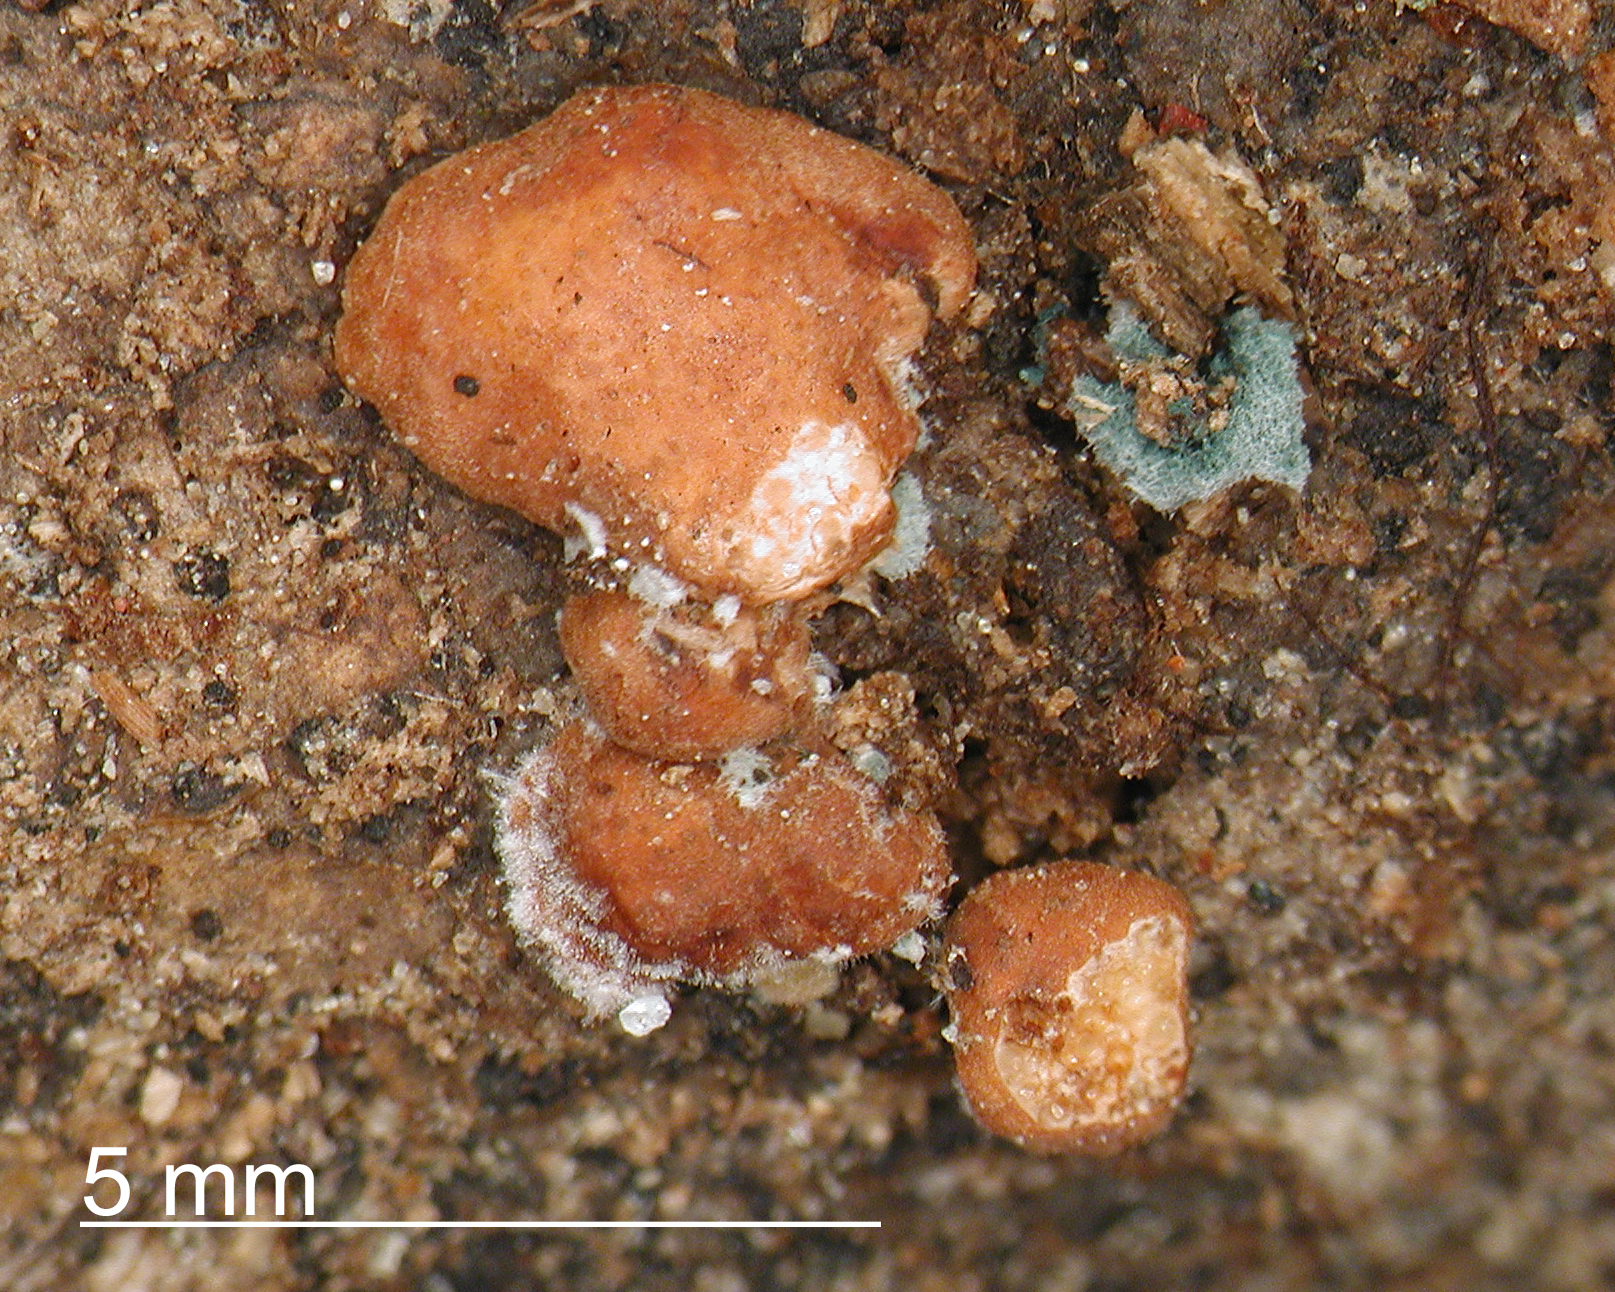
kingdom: Fungi
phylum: Ascomycota
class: Sordariomycetes
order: Hypocreales
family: Hypocreaceae
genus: Trichoderma
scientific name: Trichoderma composticola
